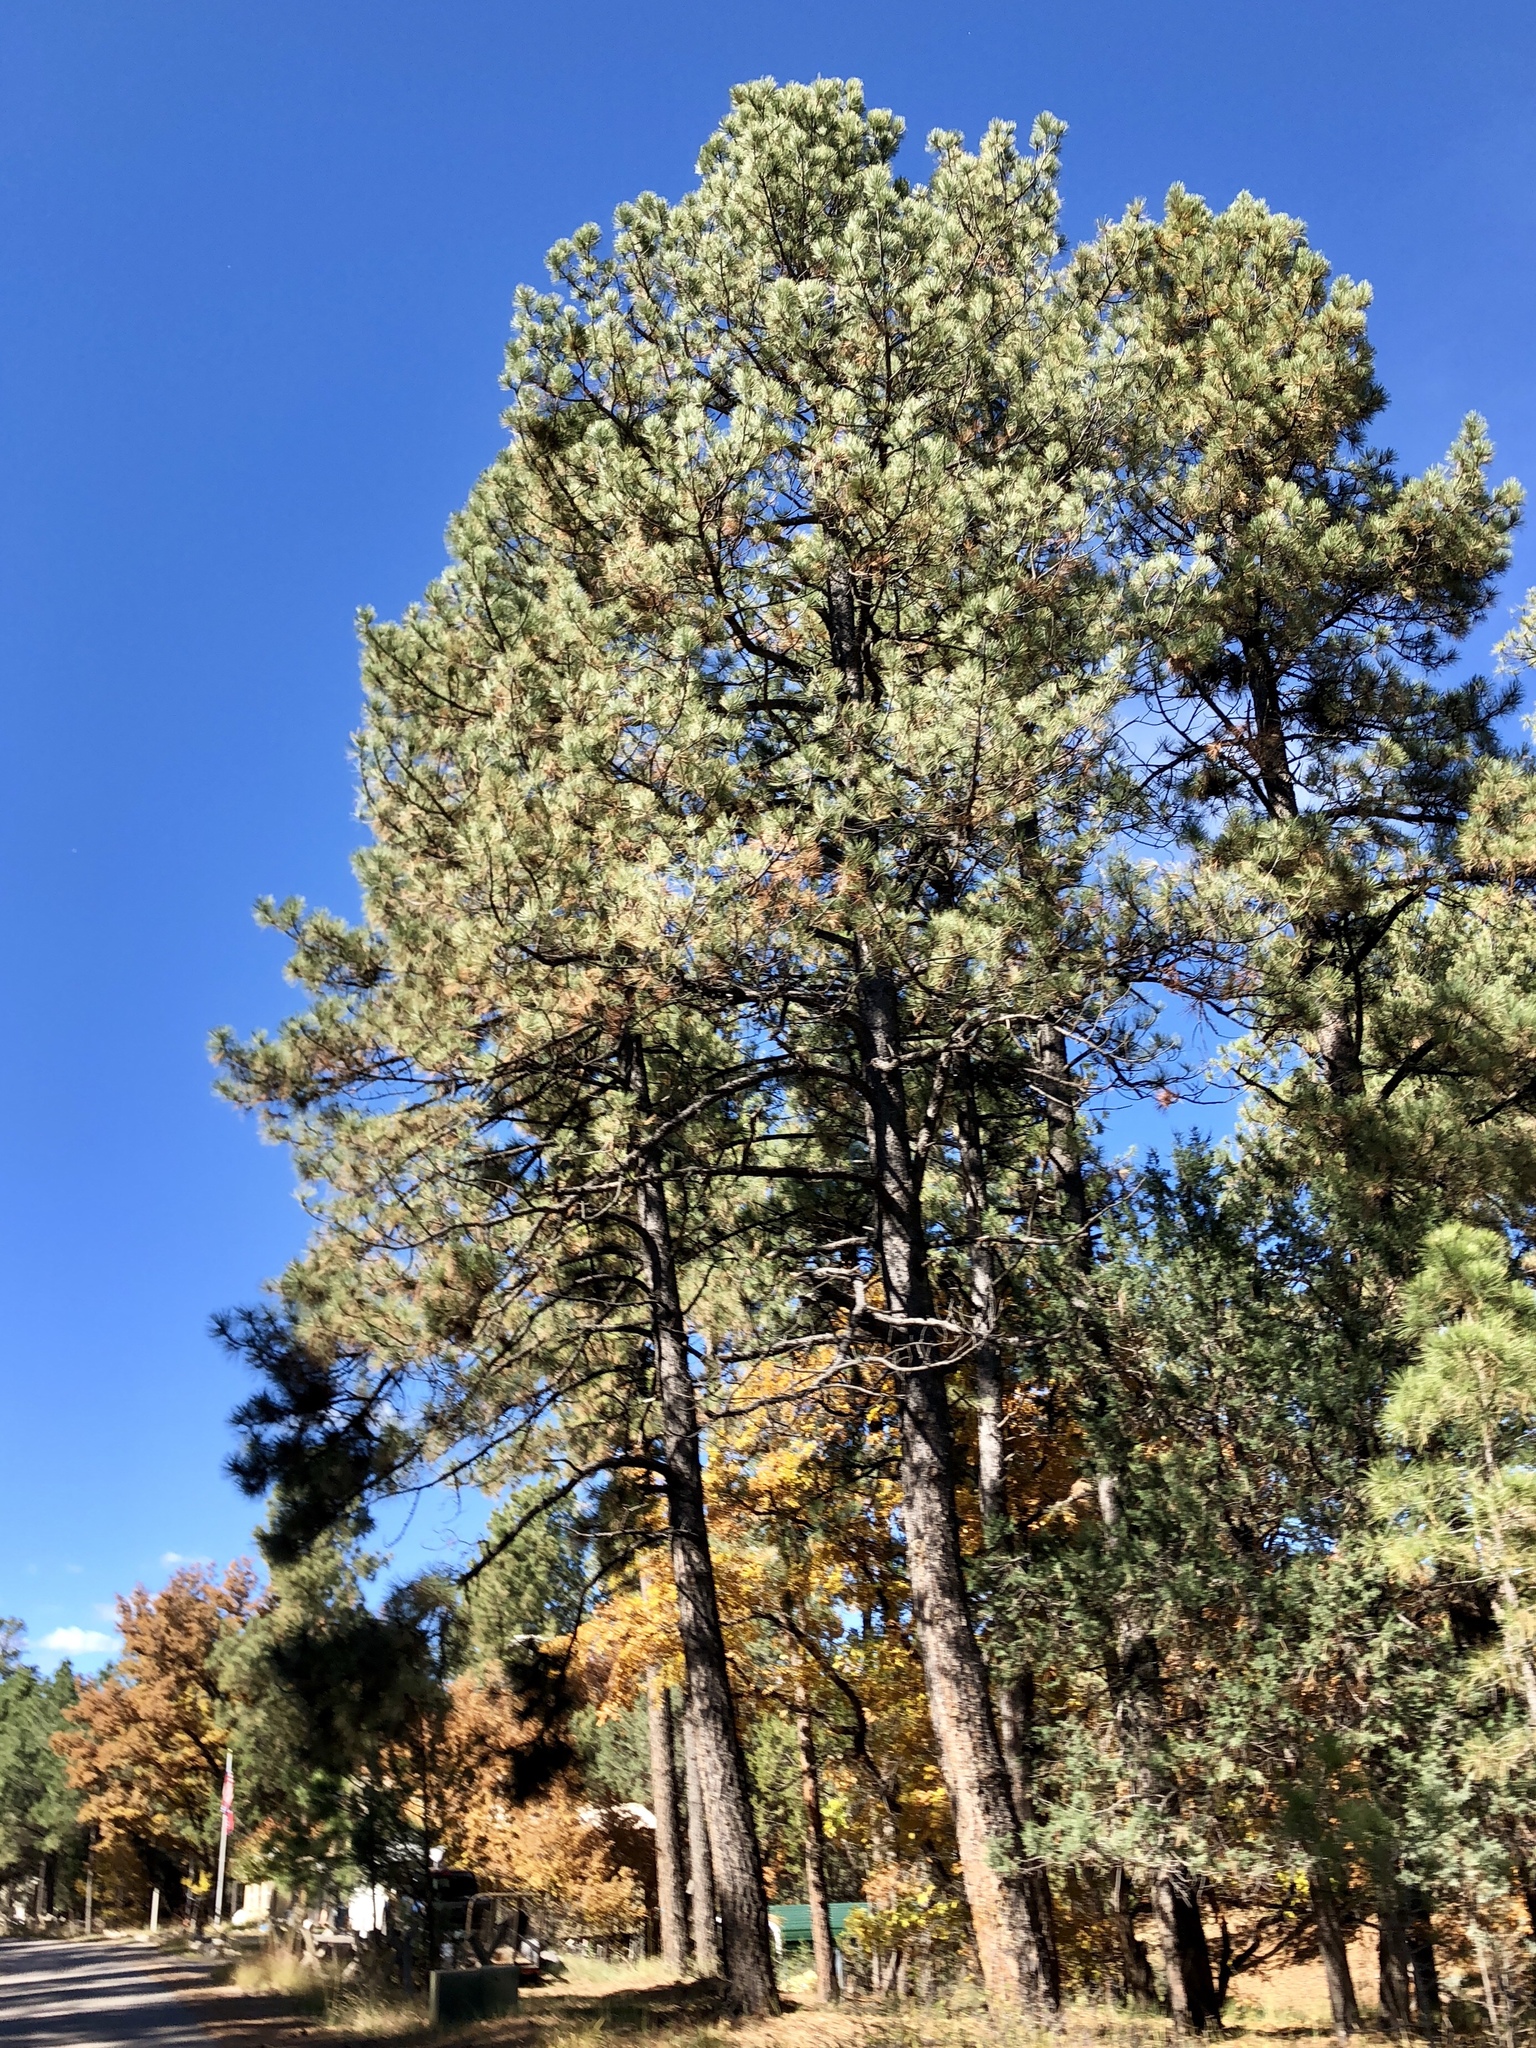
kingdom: Plantae
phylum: Tracheophyta
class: Pinopsida
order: Pinales
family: Pinaceae
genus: Pinus
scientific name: Pinus ponderosa
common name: Western yellow-pine
